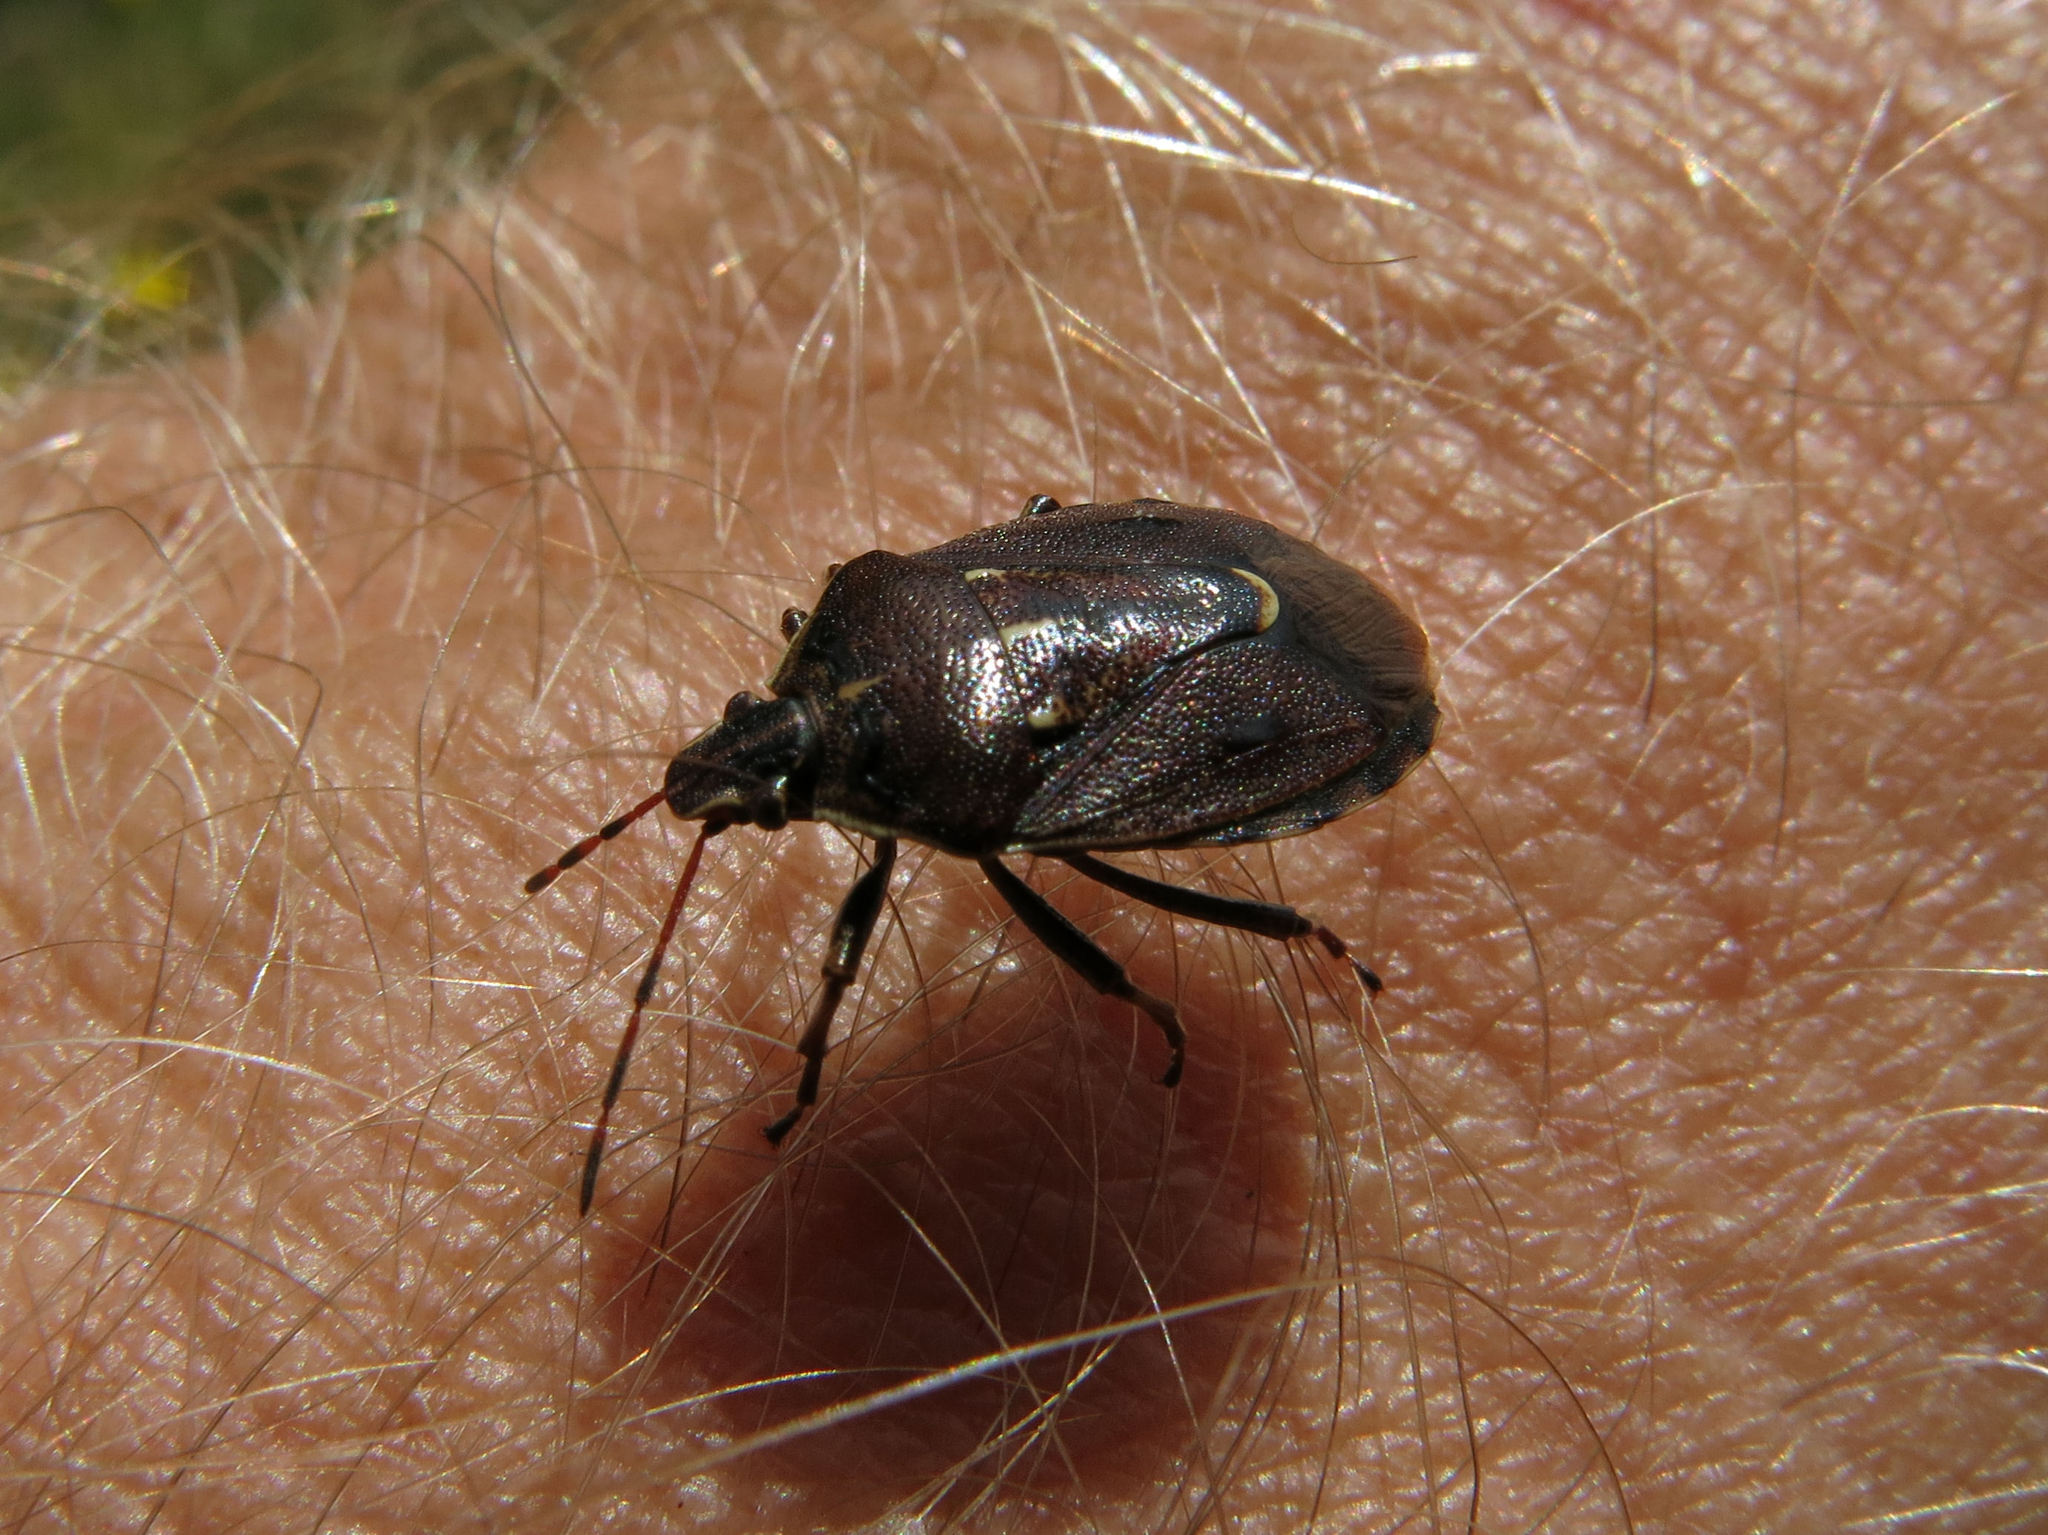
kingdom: Animalia
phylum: Arthropoda
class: Insecta
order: Hemiptera
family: Pentatomidae
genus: Cermatulus
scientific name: Cermatulus nasalis
